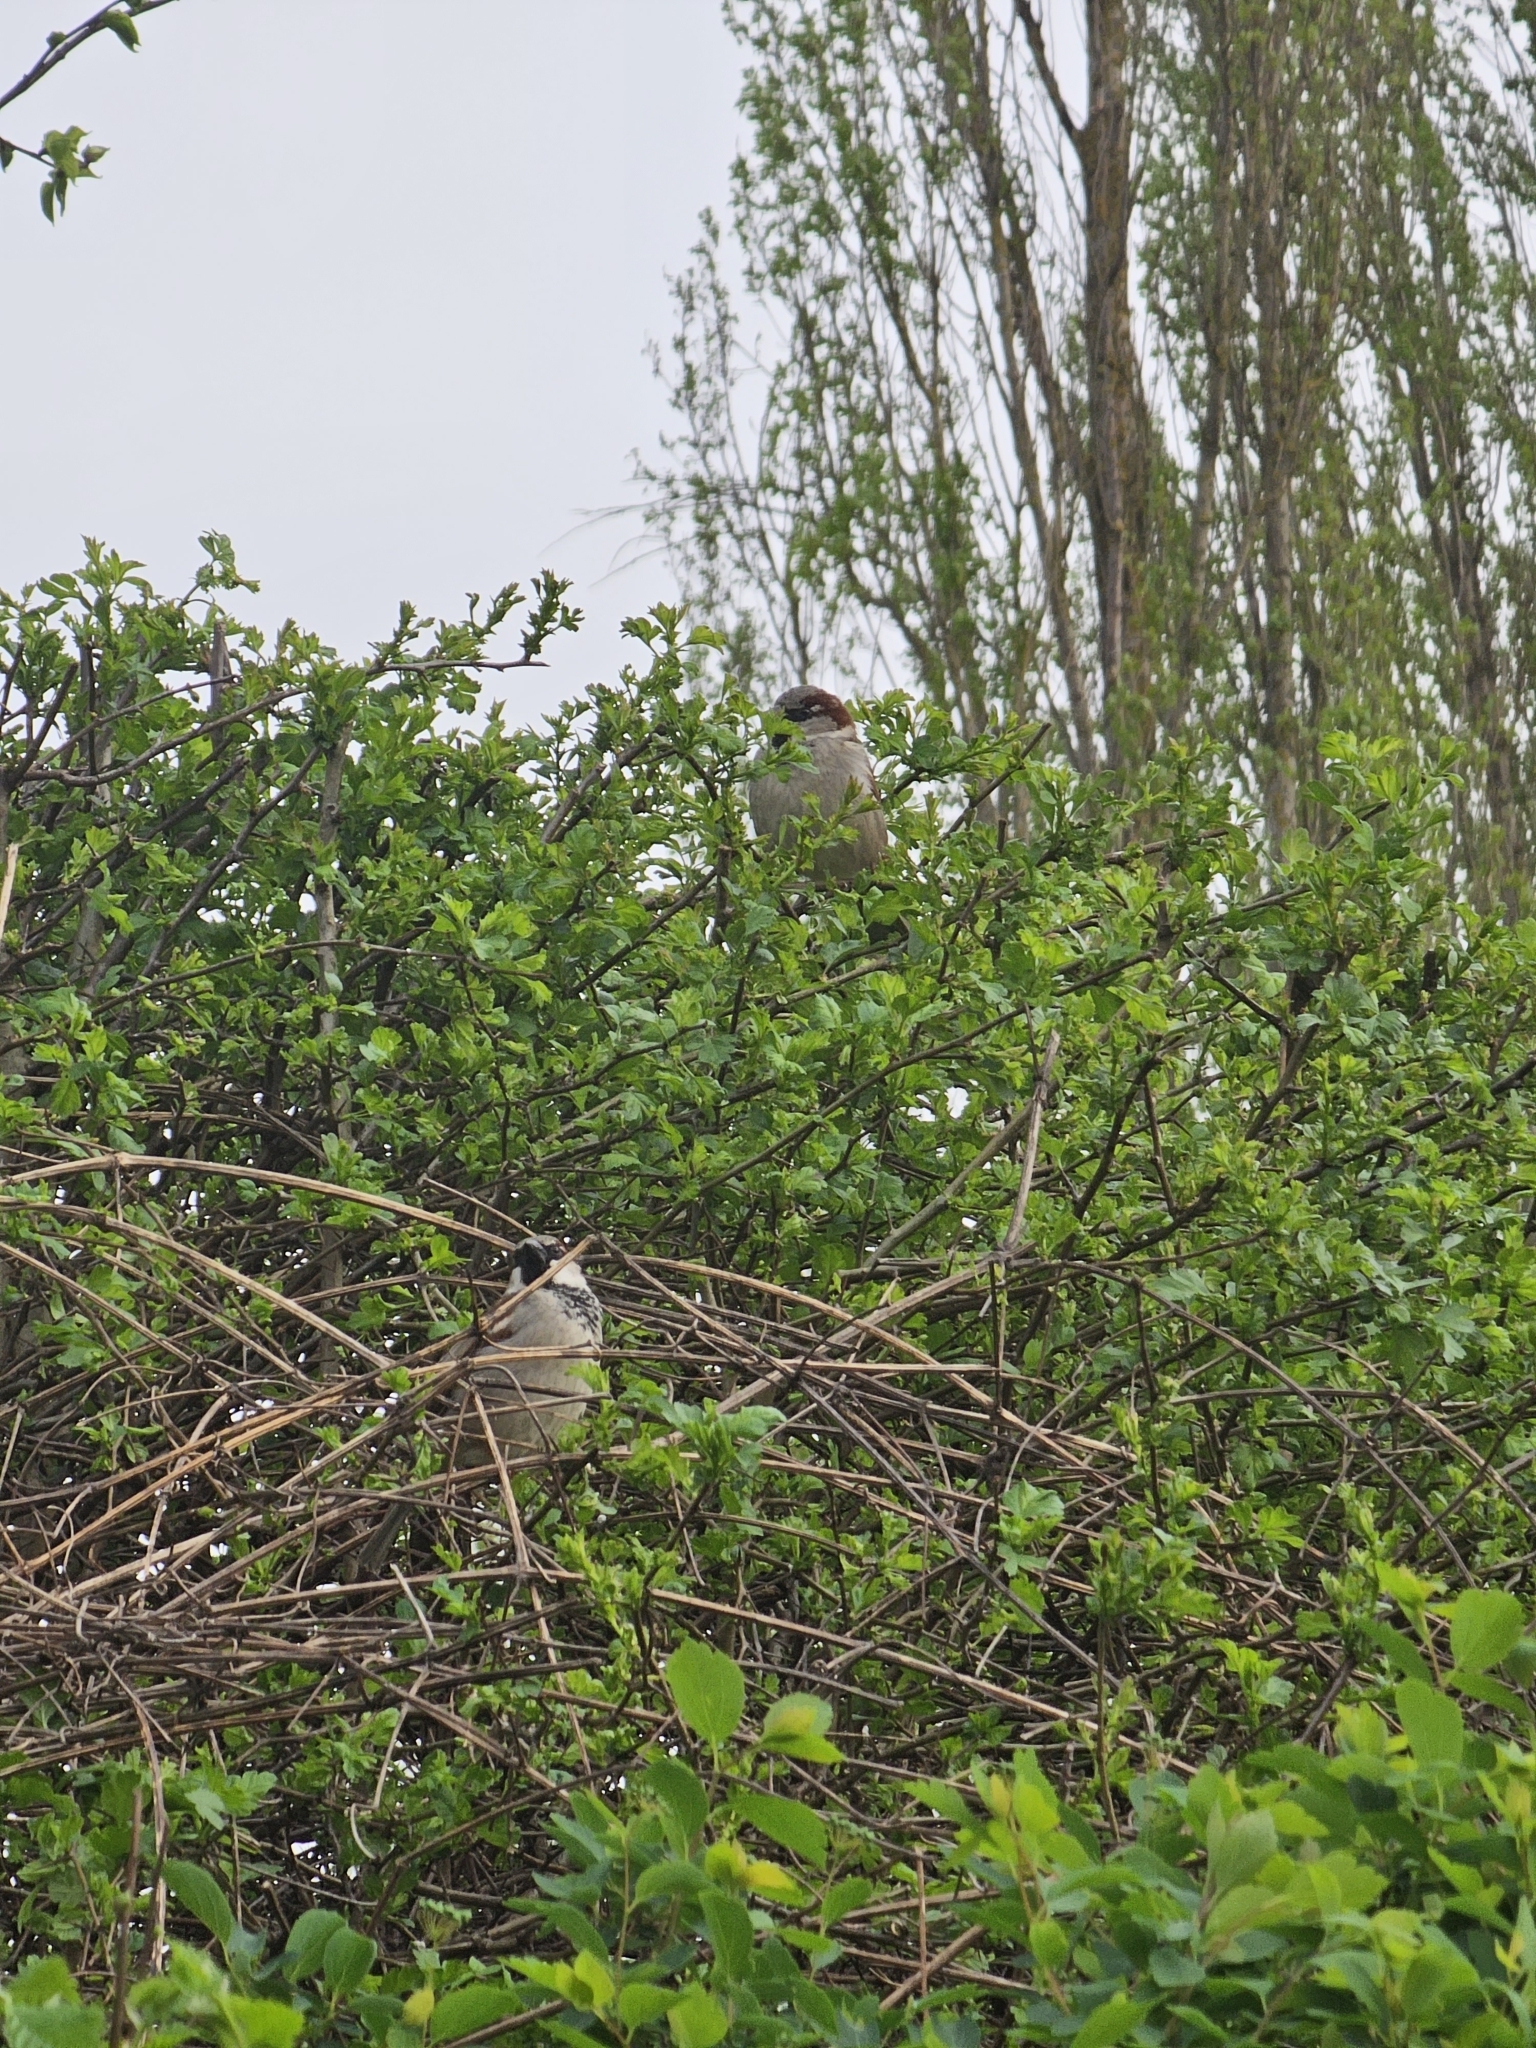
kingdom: Animalia
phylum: Chordata
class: Aves
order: Passeriformes
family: Passeridae
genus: Passer
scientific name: Passer domesticus
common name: House sparrow
